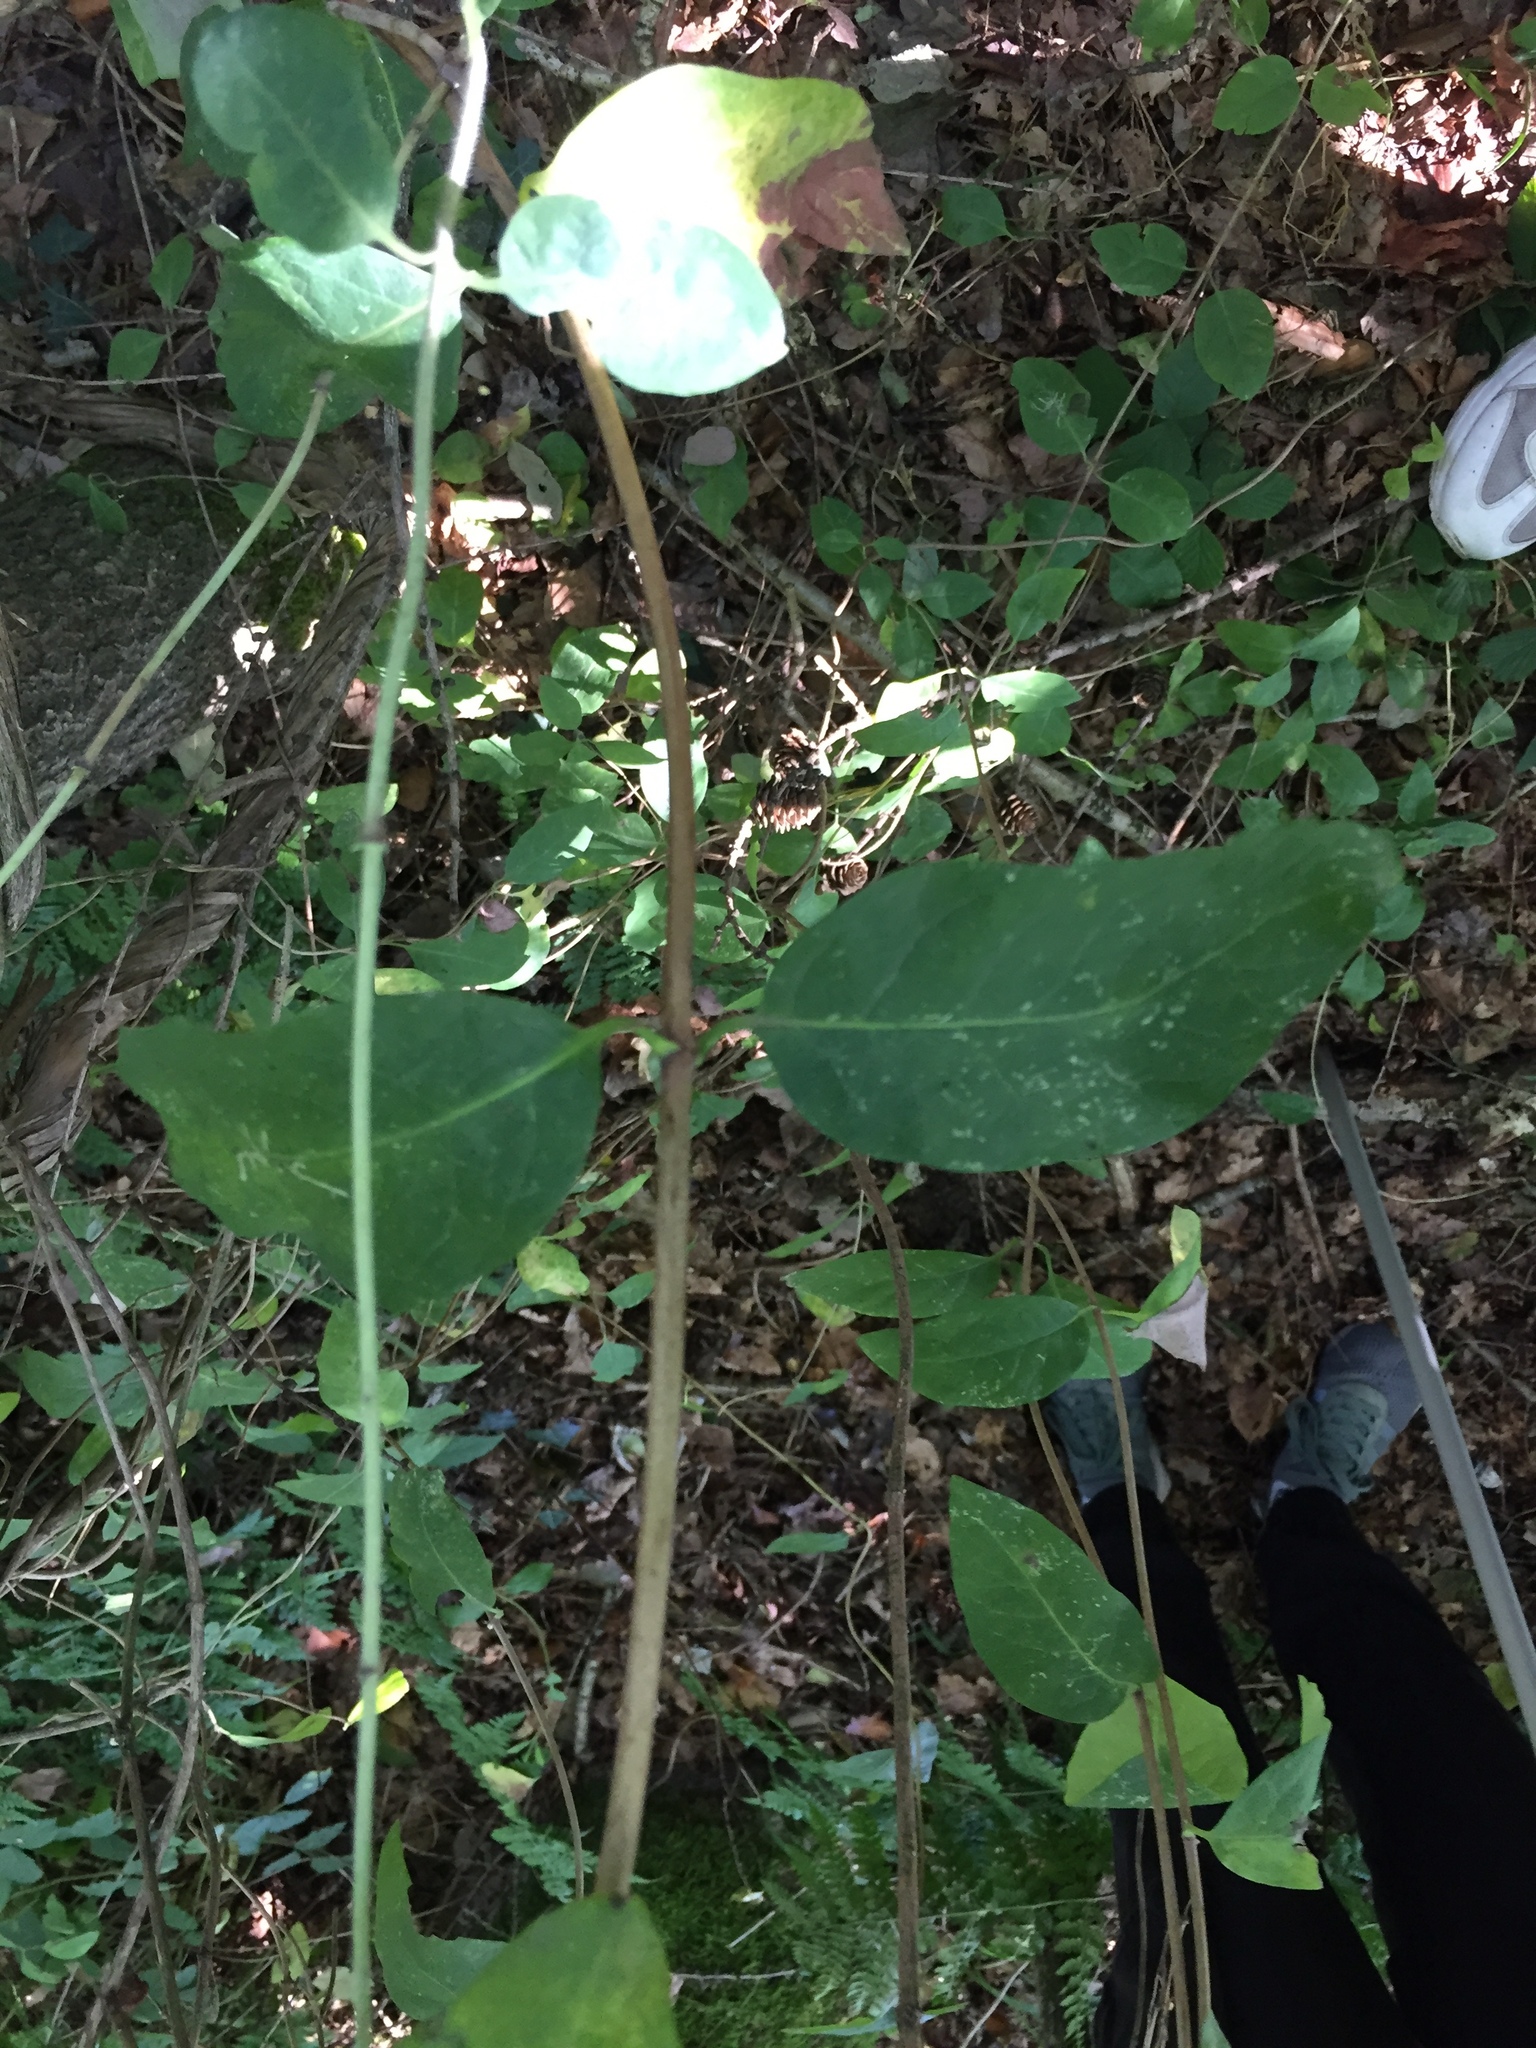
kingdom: Plantae
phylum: Tracheophyta
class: Magnoliopsida
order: Dipsacales
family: Caprifoliaceae
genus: Lonicera
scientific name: Lonicera periclymenum
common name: European honeysuckle
